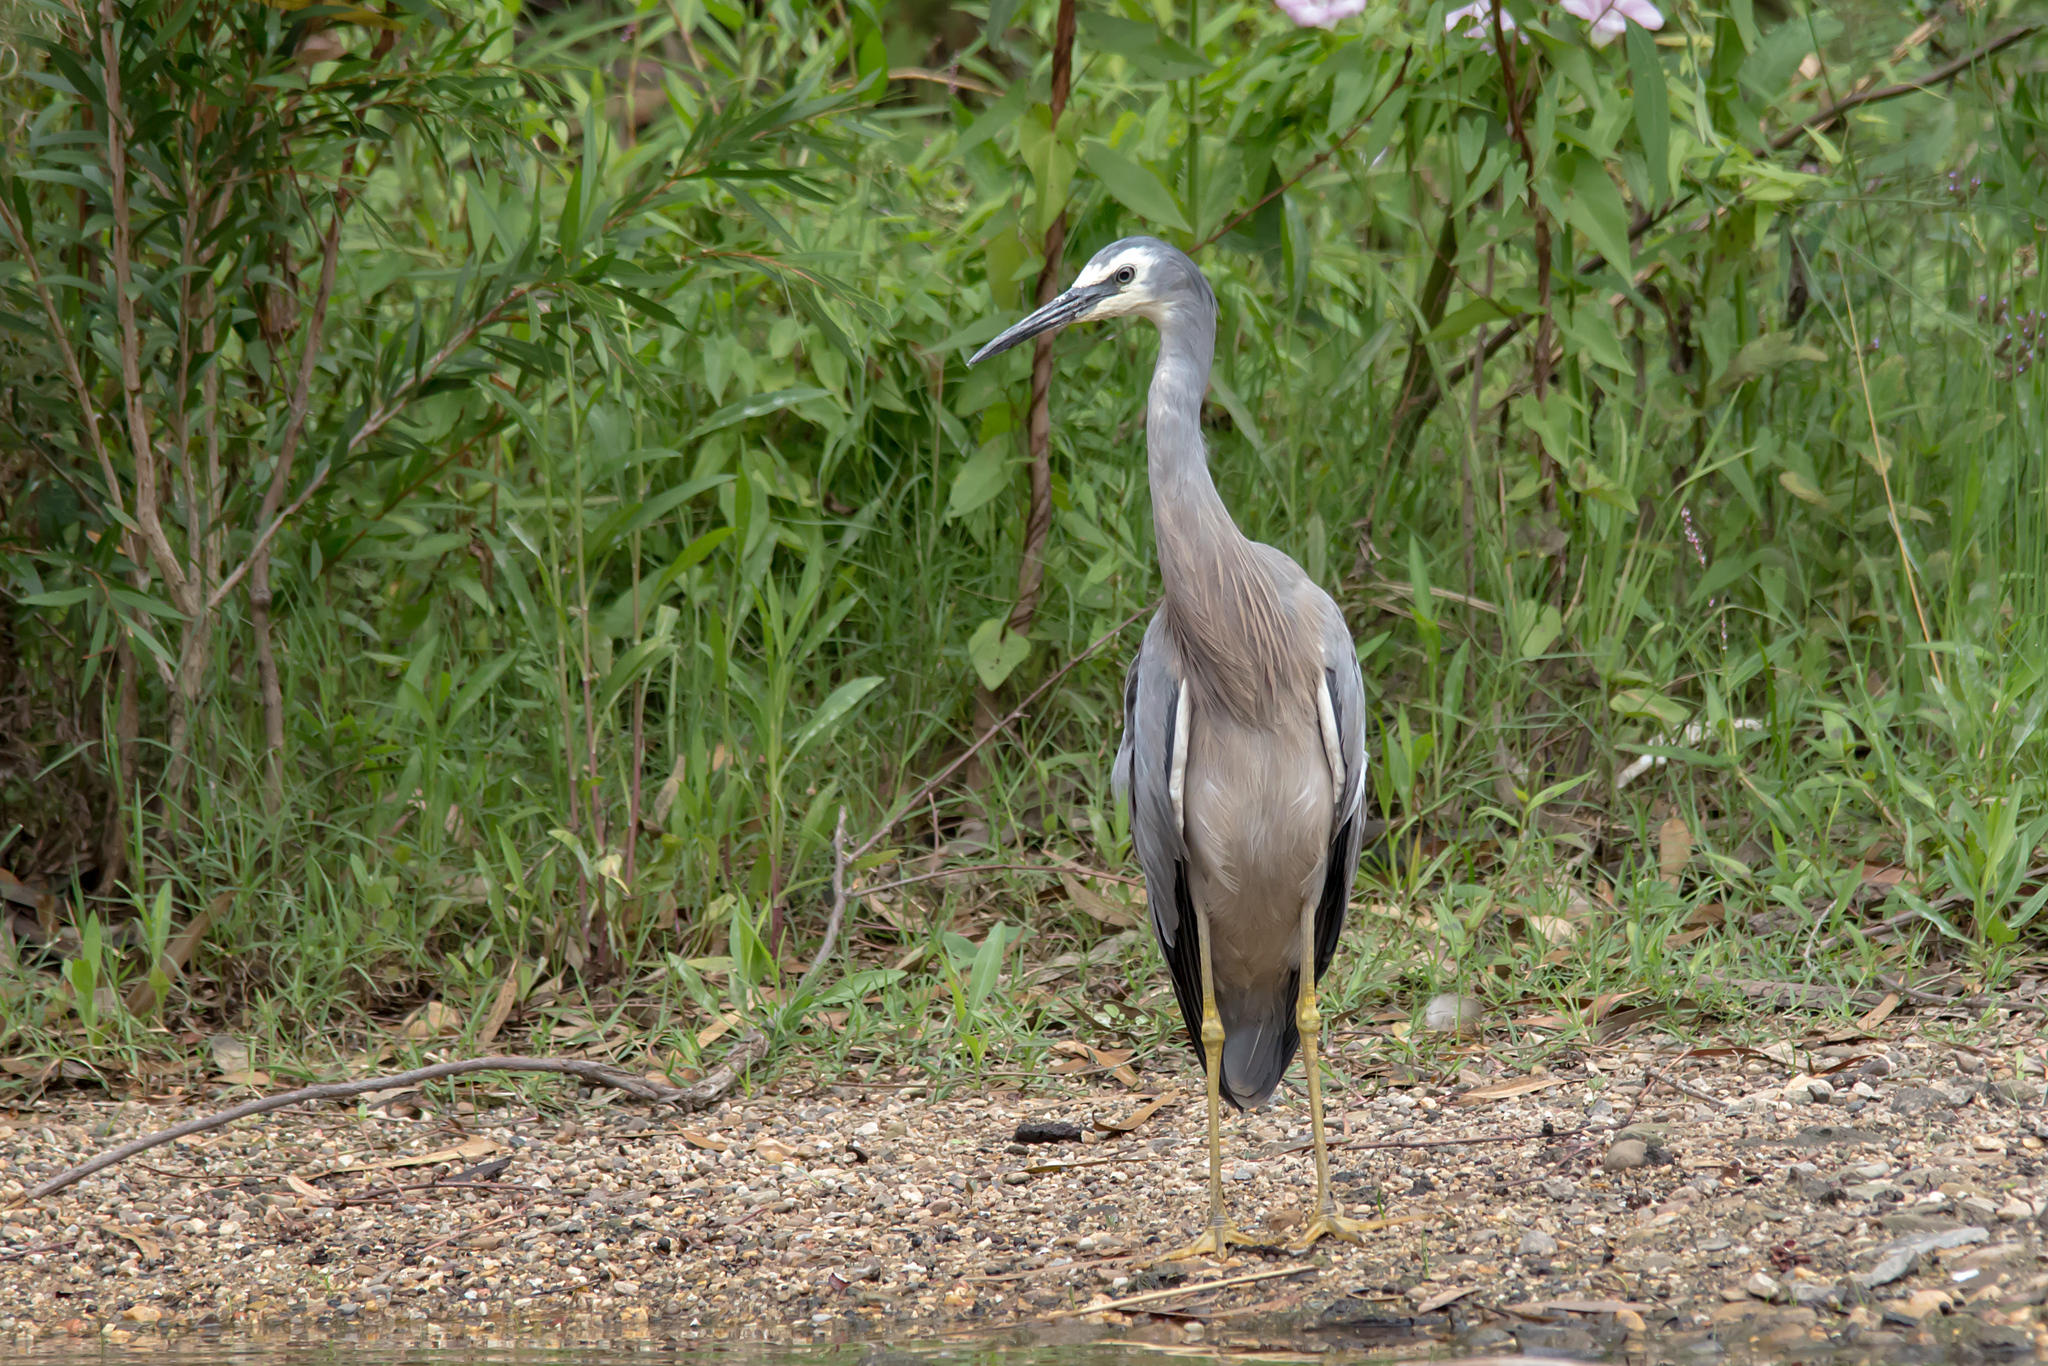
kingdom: Animalia
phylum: Chordata
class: Aves
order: Pelecaniformes
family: Ardeidae
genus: Egretta
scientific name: Egretta novaehollandiae
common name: White-faced heron
